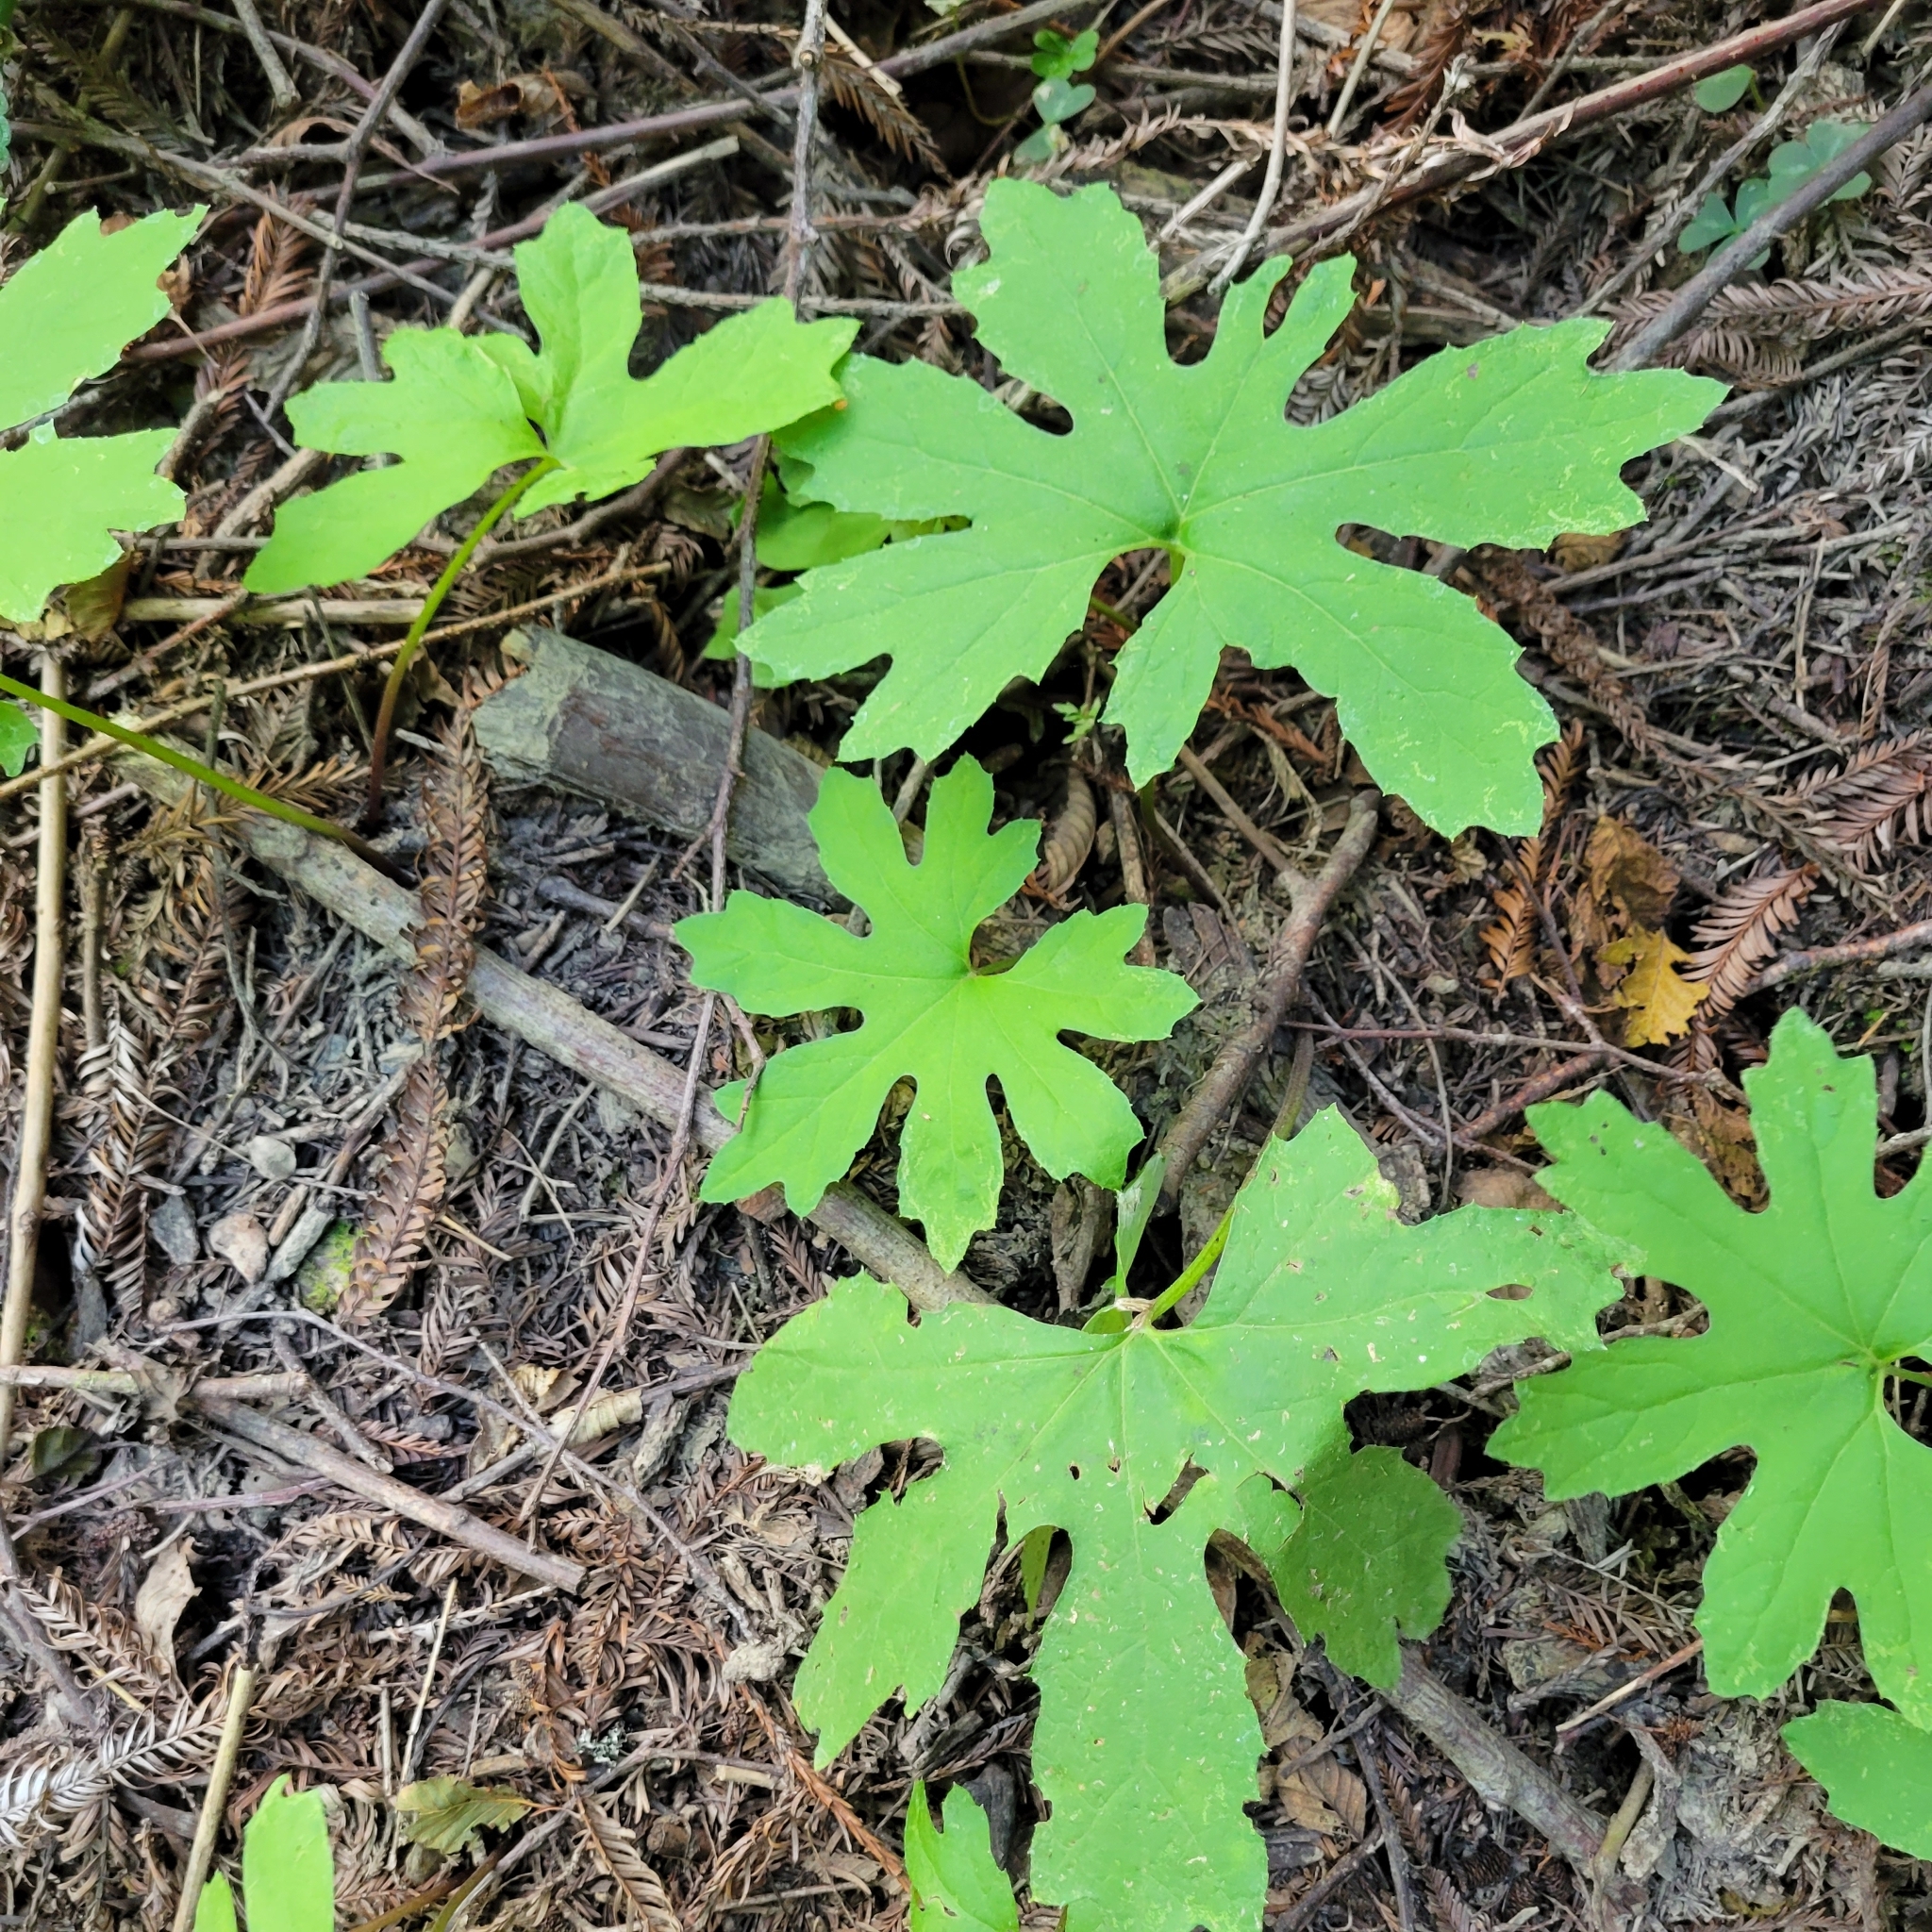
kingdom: Plantae
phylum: Tracheophyta
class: Magnoliopsida
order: Asterales
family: Asteraceae
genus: Petasites
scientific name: Petasites frigidus
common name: Arctic butterbur
